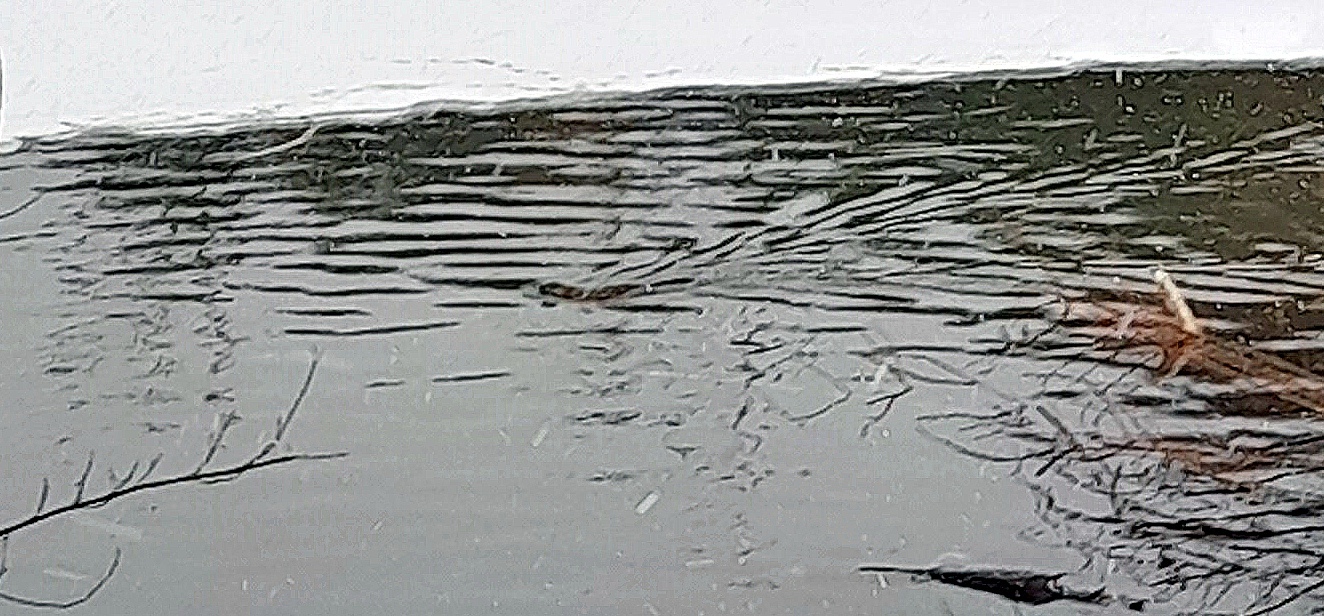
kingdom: Animalia
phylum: Chordata
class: Mammalia
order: Rodentia
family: Cricetidae
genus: Ondatra
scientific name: Ondatra zibethicus
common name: Muskrat
